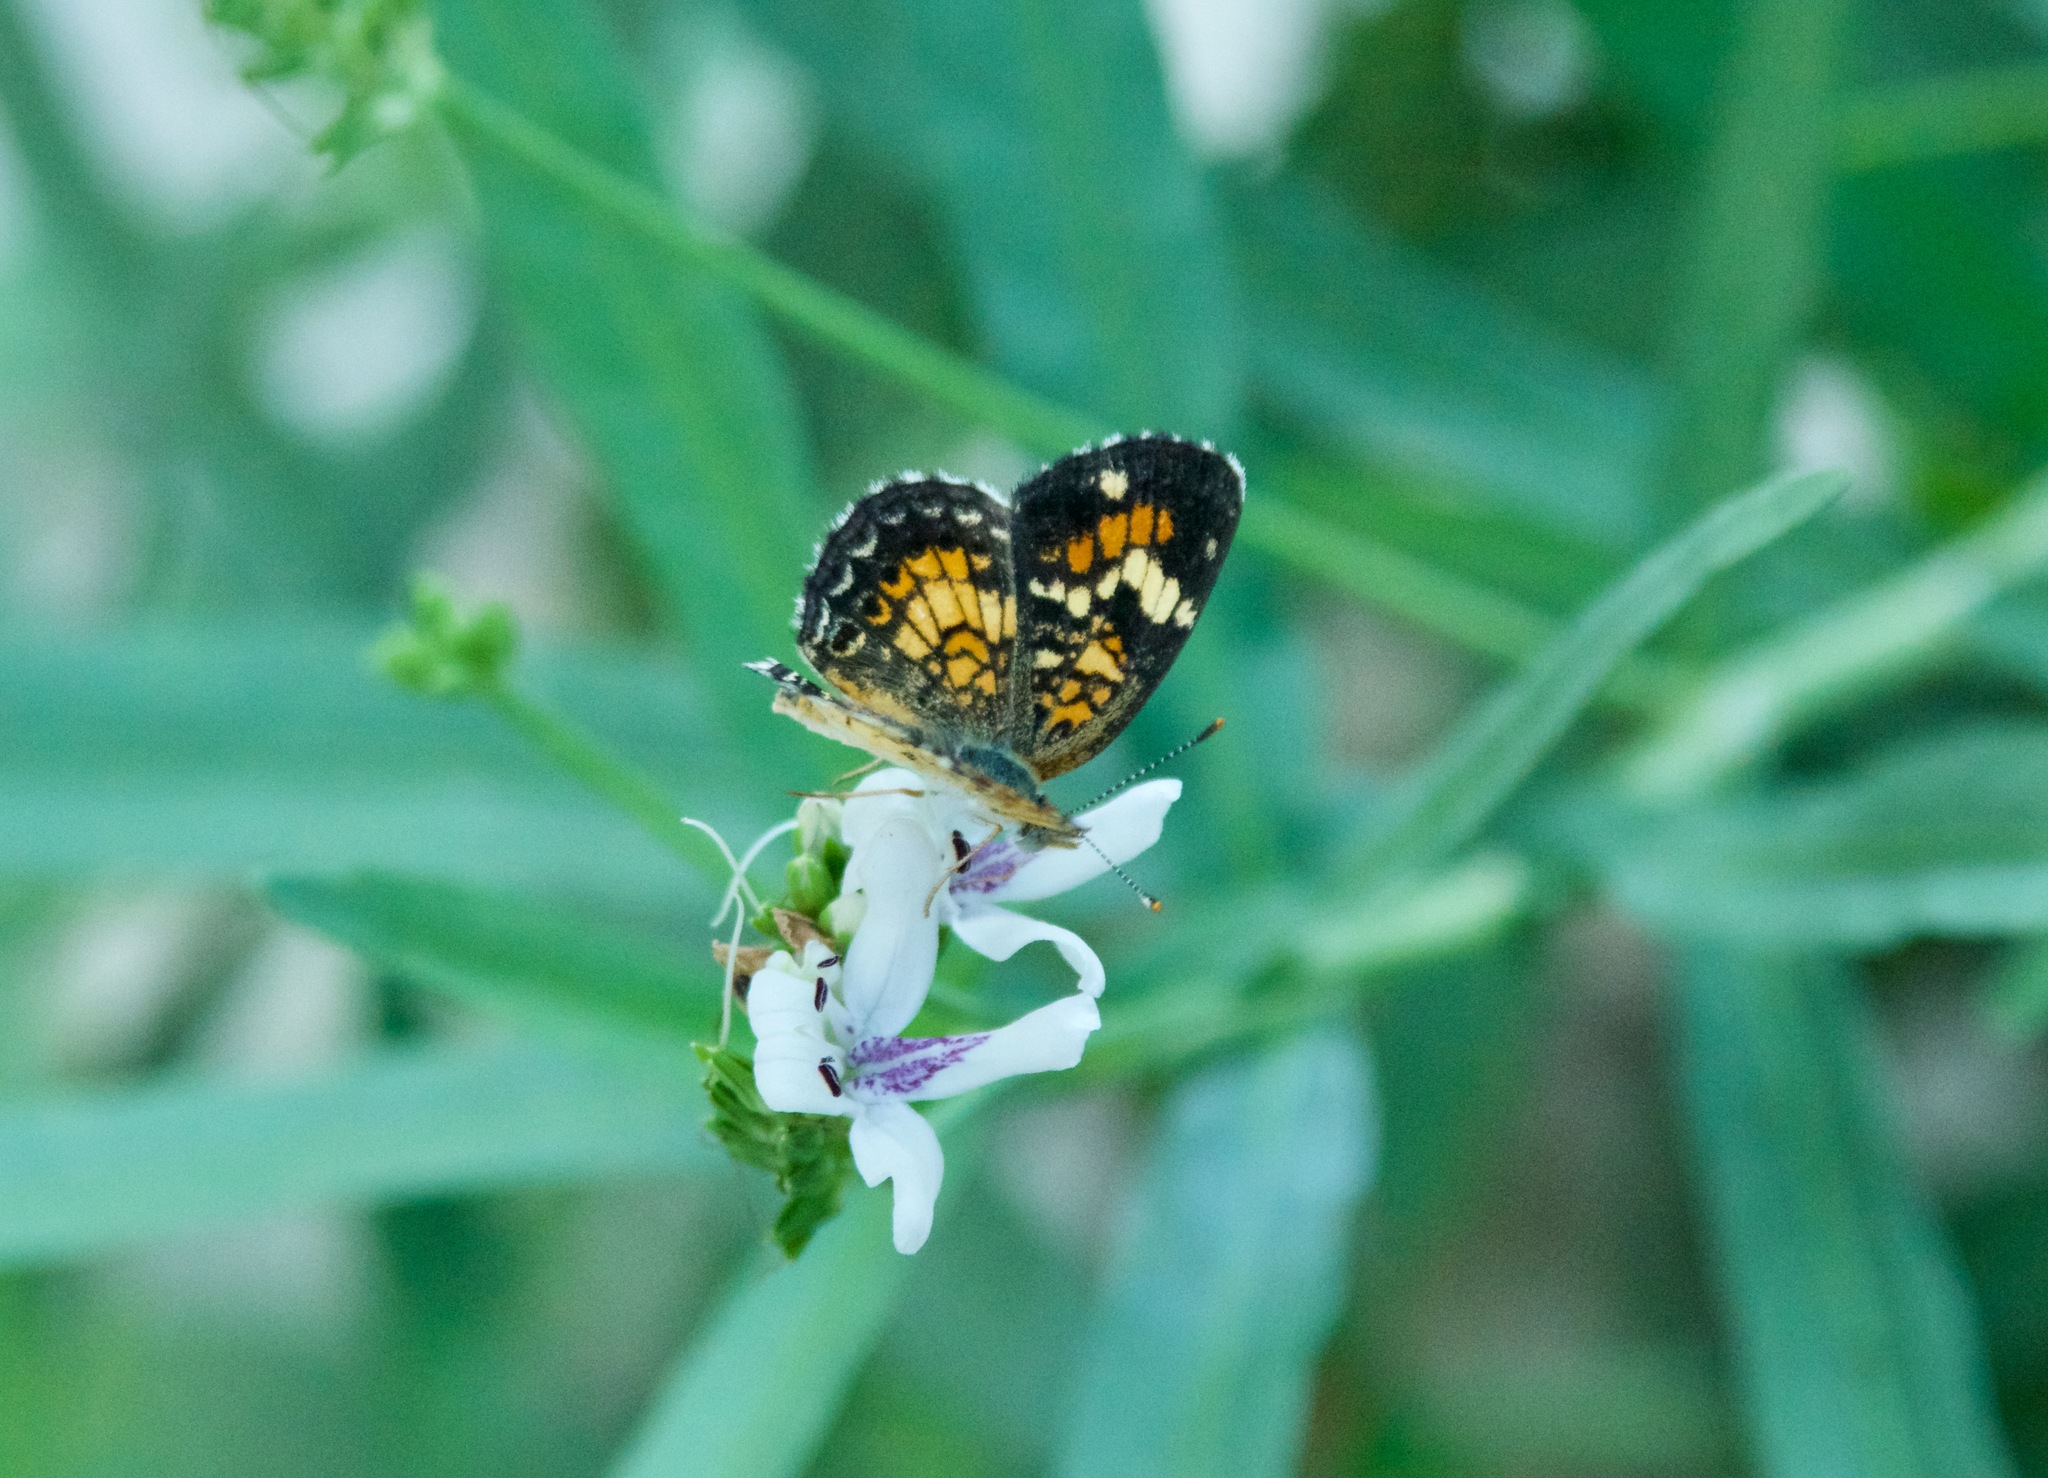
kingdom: Animalia
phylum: Arthropoda
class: Insecta
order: Lepidoptera
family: Nymphalidae
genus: Phyciodes
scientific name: Phyciodes phaon
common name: Phaon crescent
